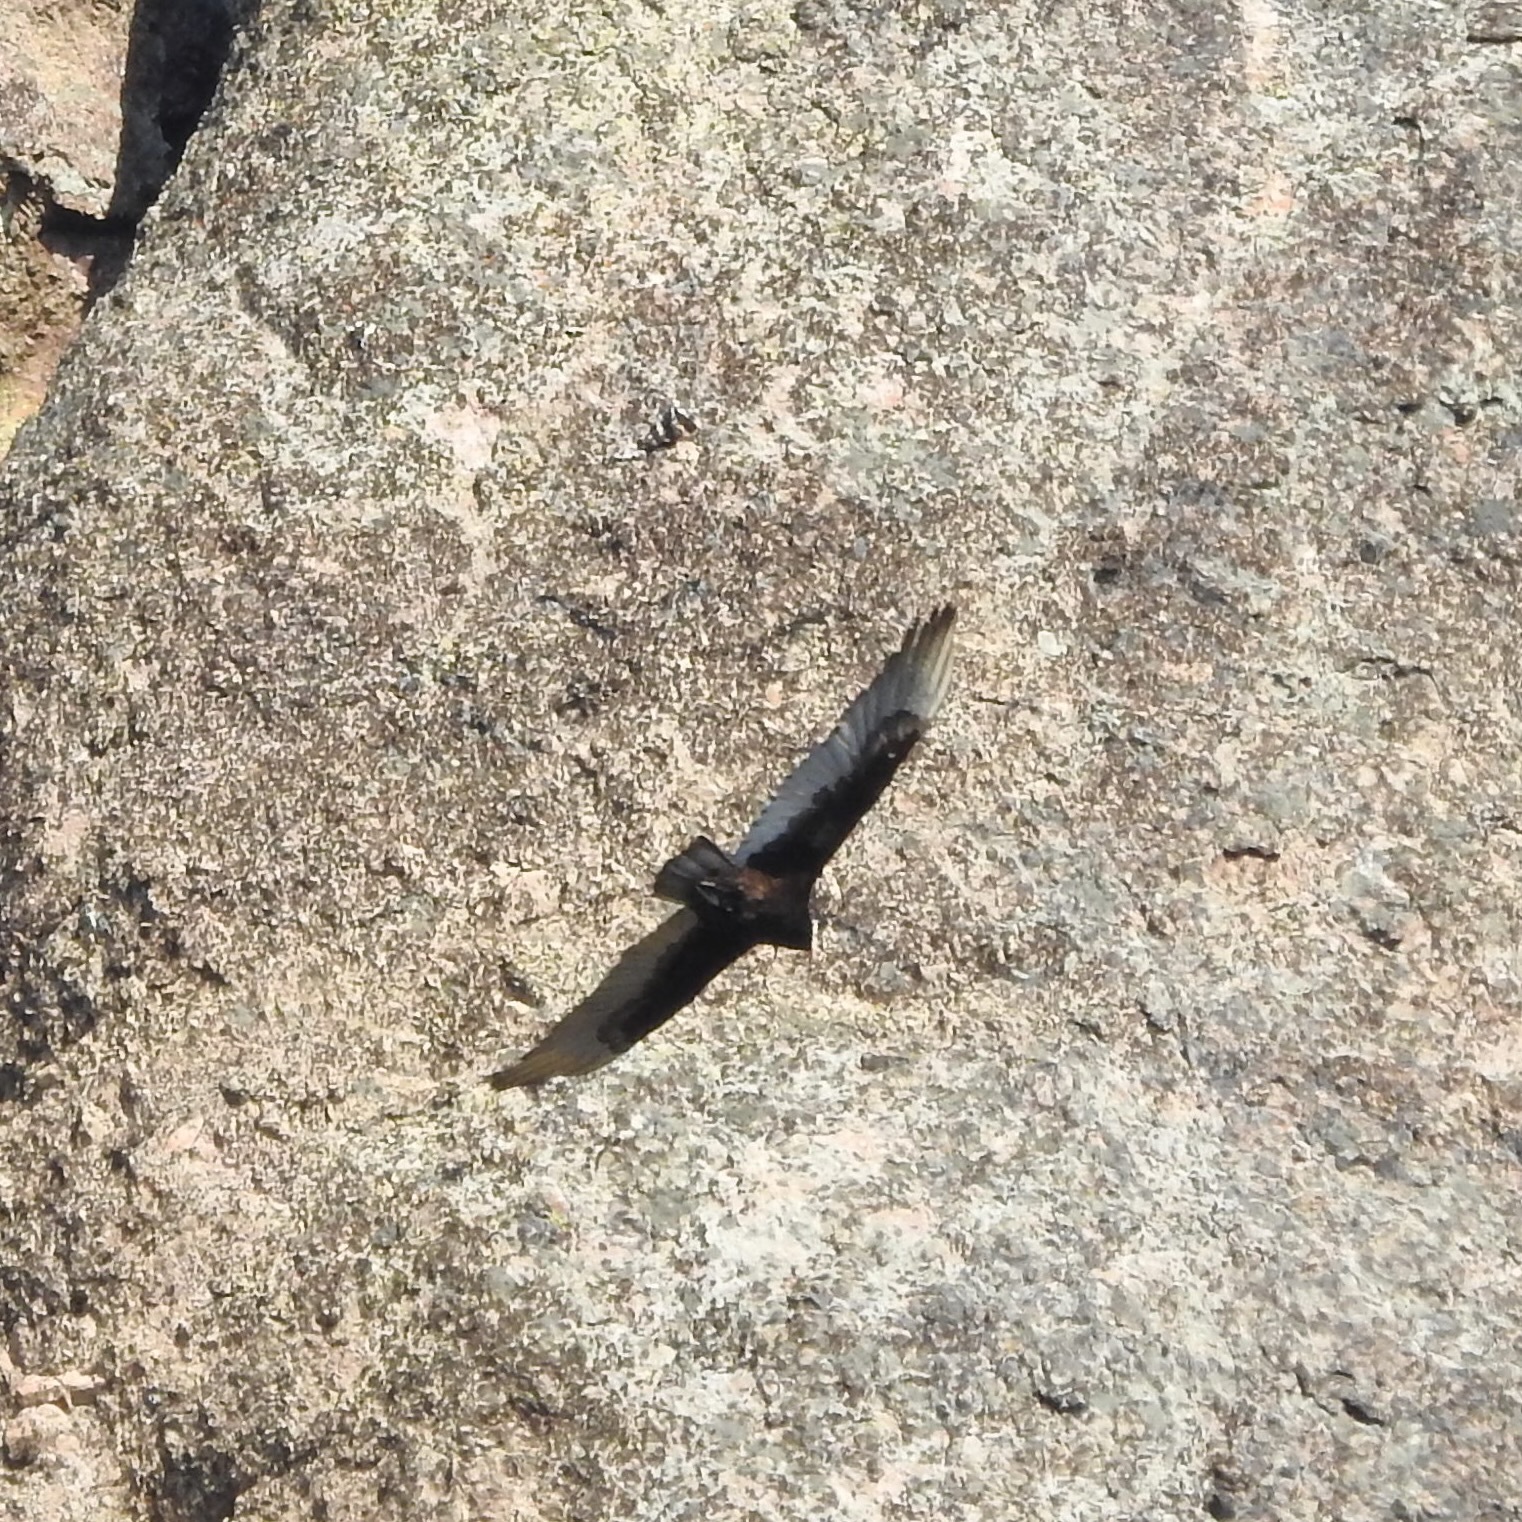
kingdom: Animalia
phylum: Chordata
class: Aves
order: Accipitriformes
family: Cathartidae
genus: Cathartes
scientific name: Cathartes aura
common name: Turkey vulture
